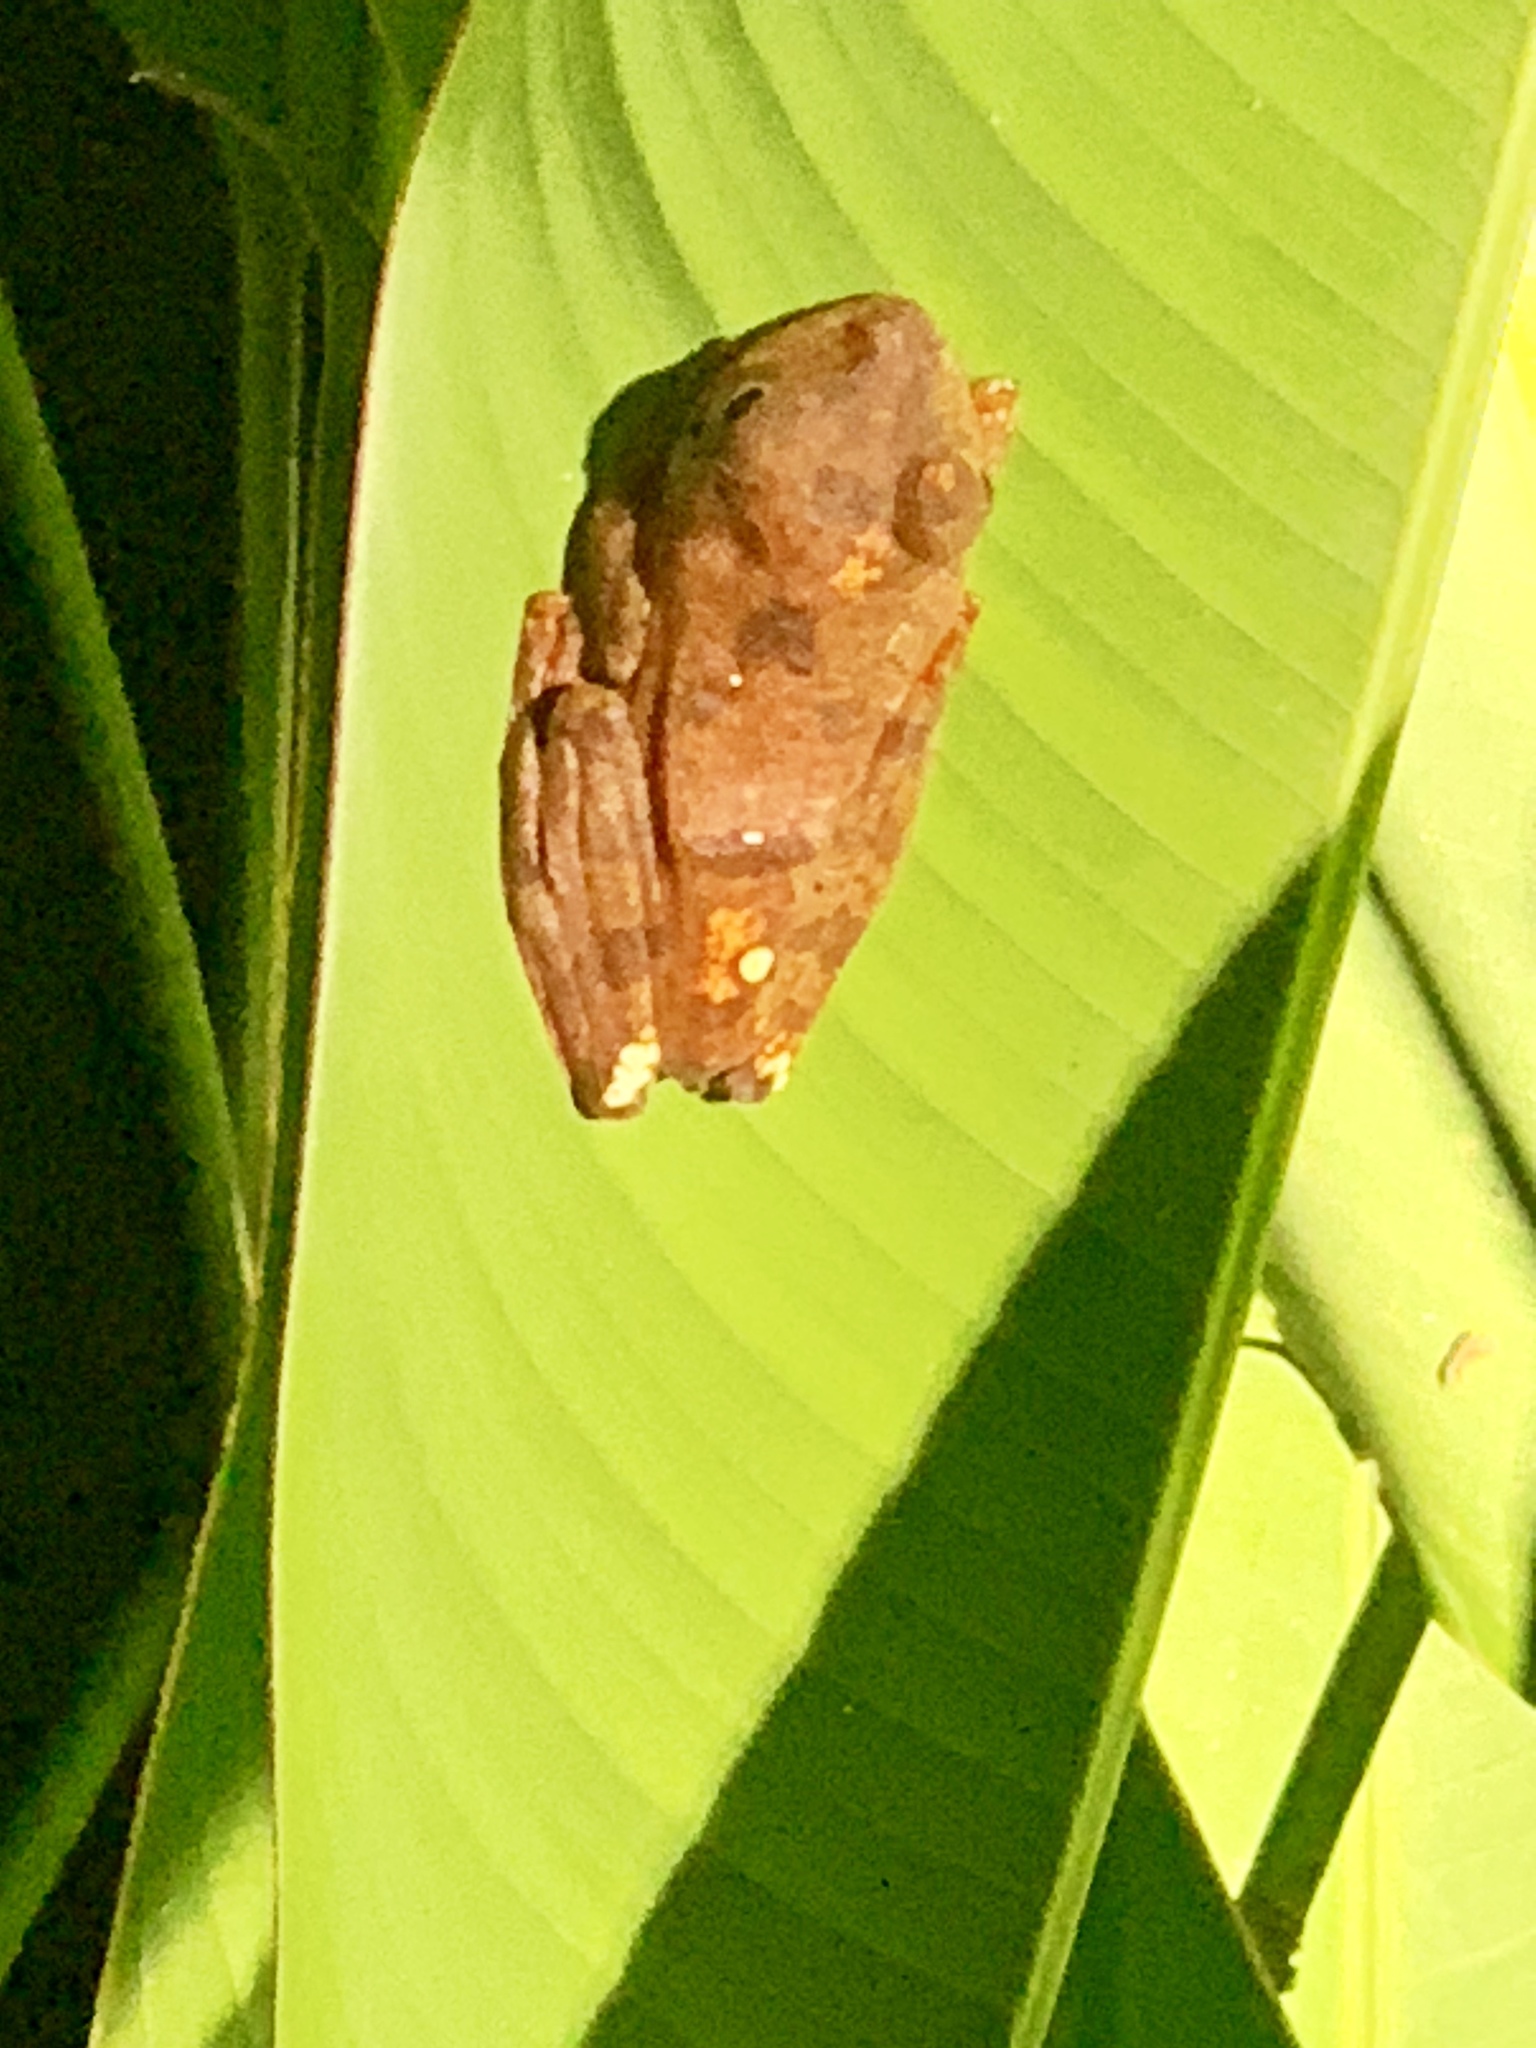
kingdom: Animalia
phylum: Chordata
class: Amphibia
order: Anura
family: Rhacophoridae
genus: Rhacophorus
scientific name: Rhacophorus pardalis
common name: Harlequin tree frog
